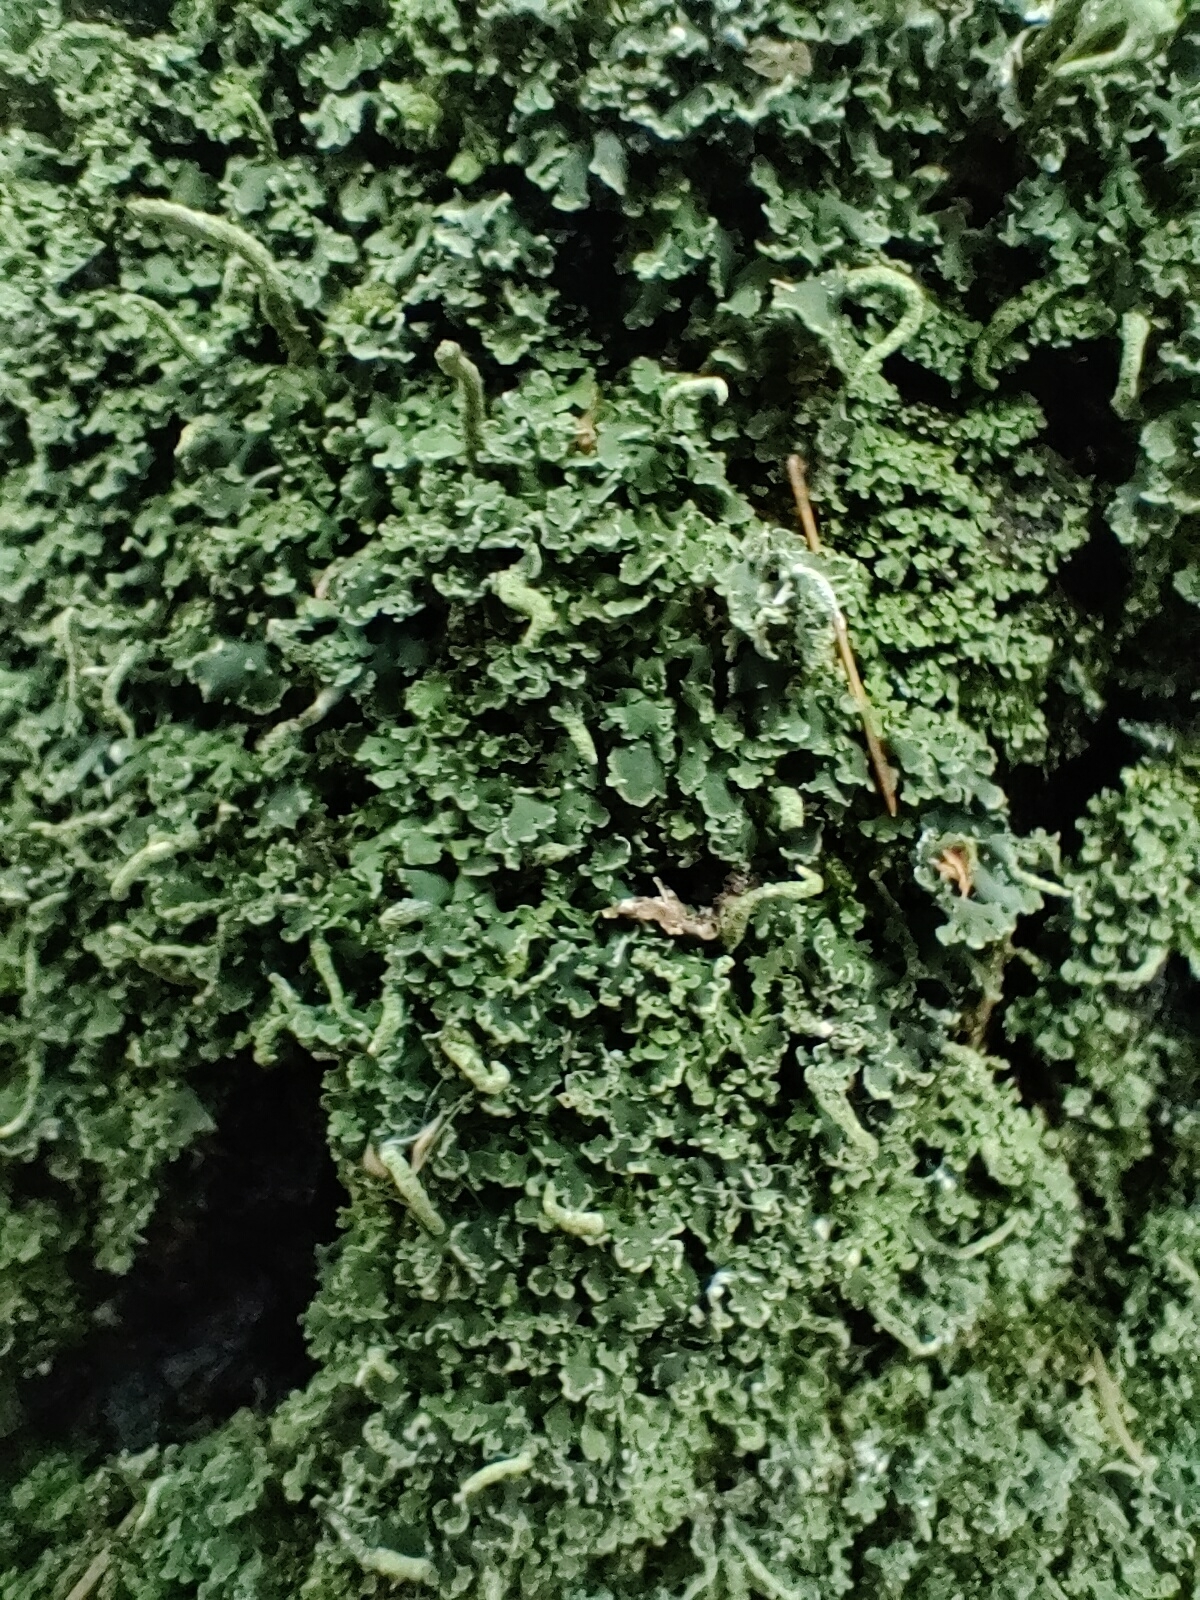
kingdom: Fungi
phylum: Ascomycota
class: Lecanoromycetes
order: Lecanorales
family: Cladoniaceae
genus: Cladonia
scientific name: Cladonia coniocraea
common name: Common powderhorn
